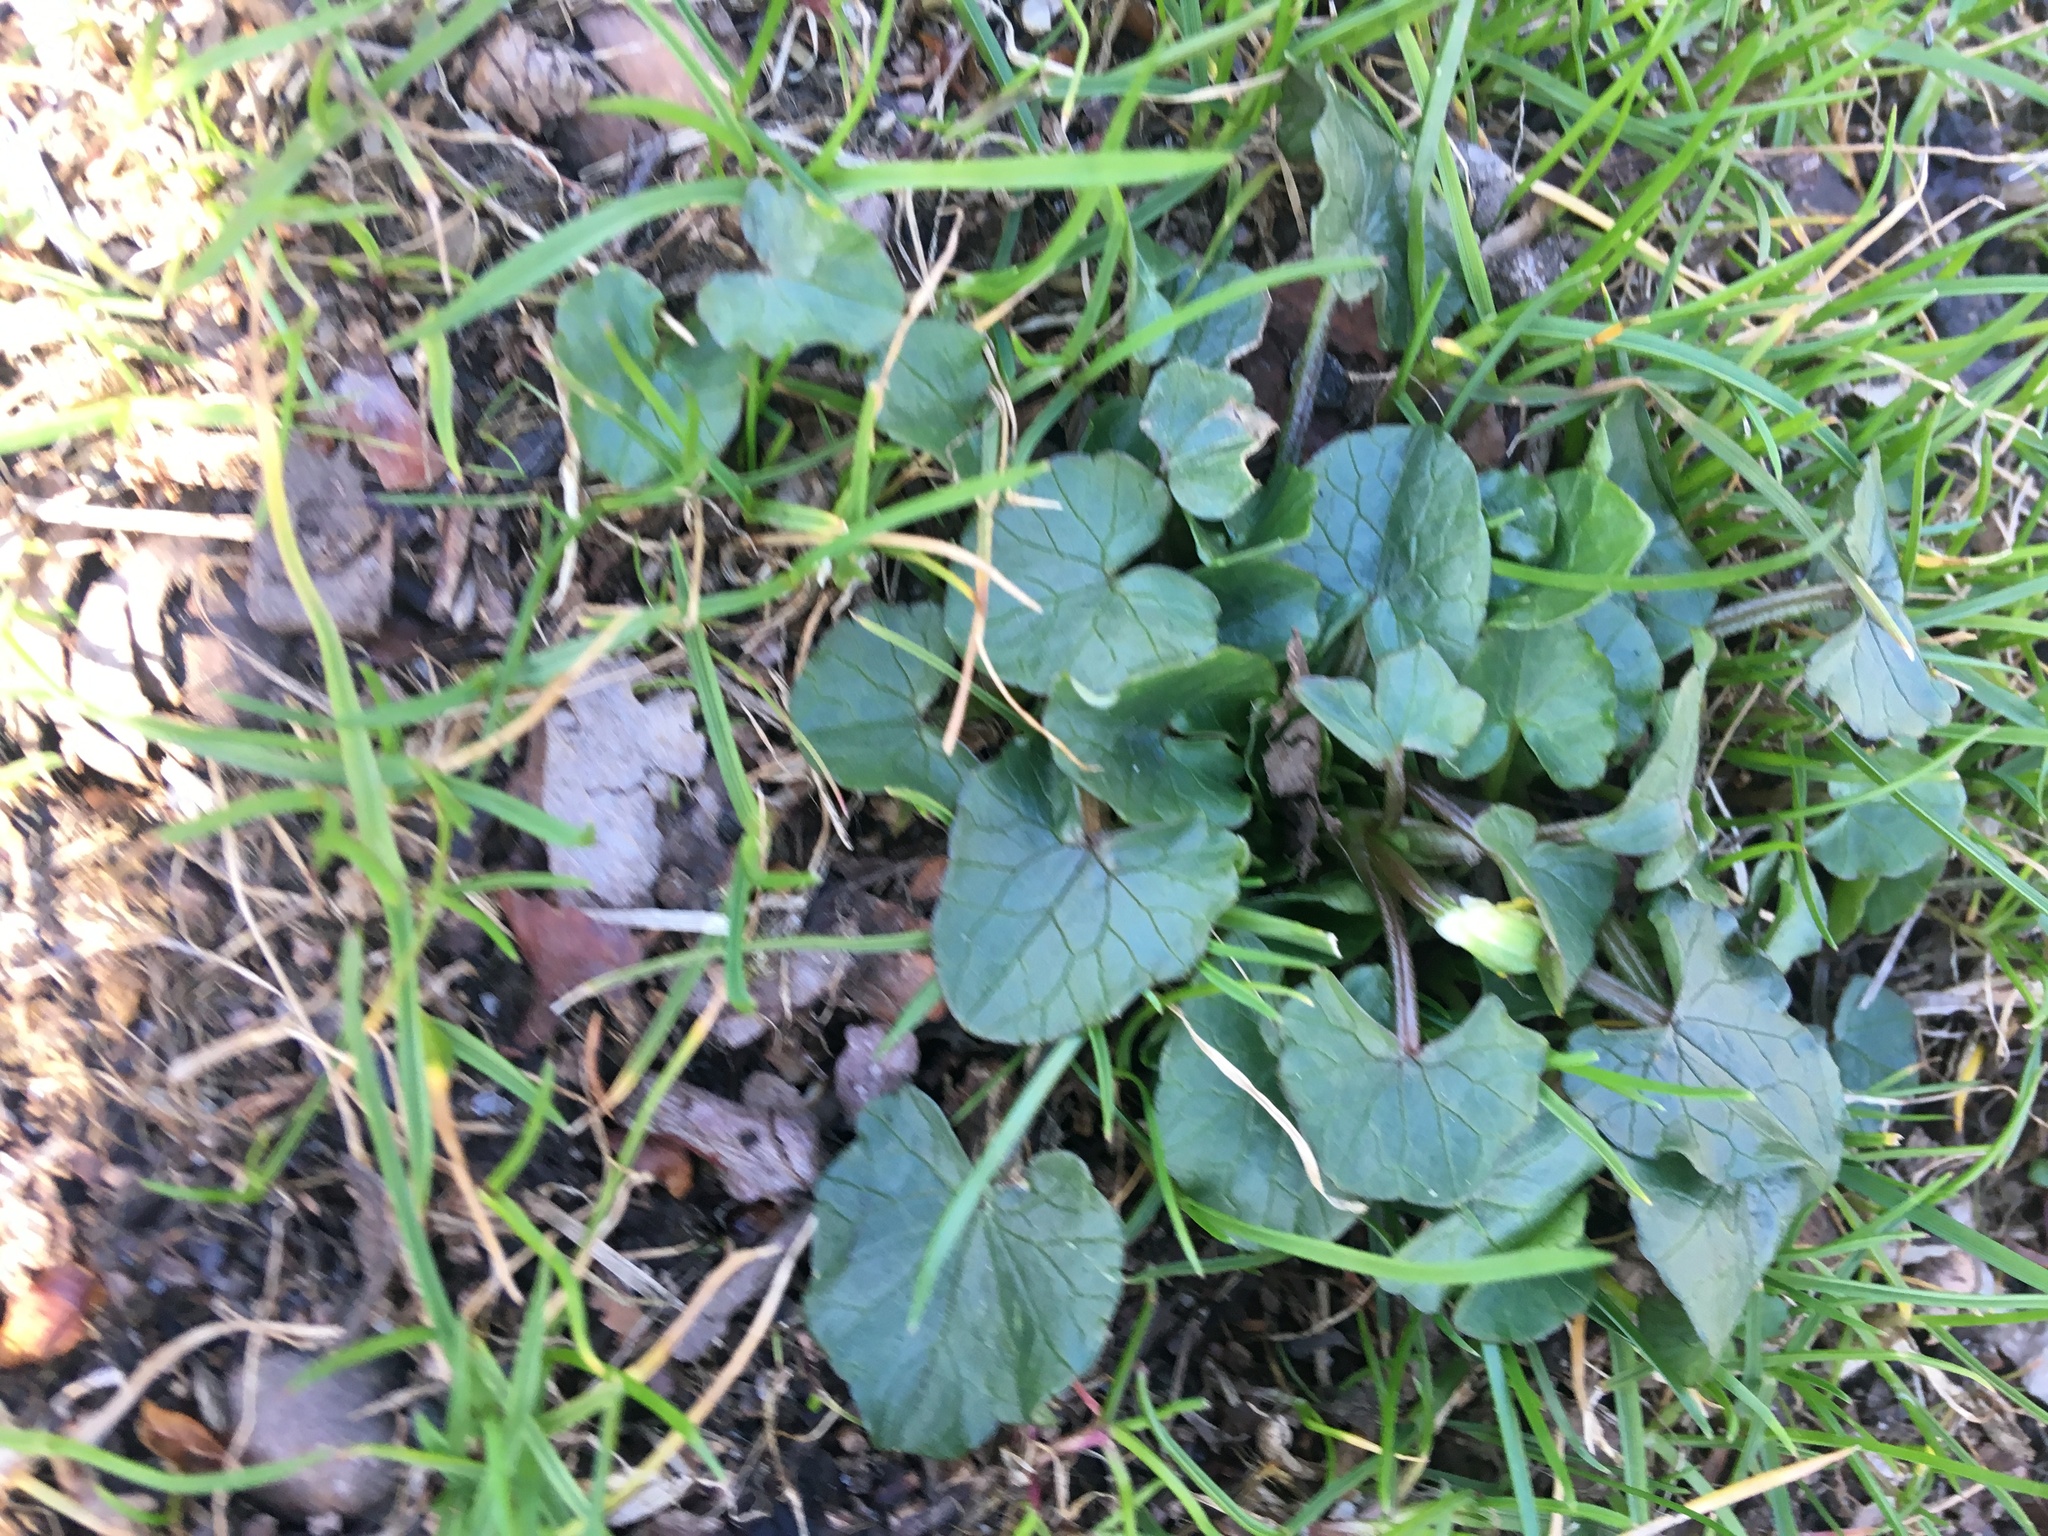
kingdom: Plantae
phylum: Tracheophyta
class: Magnoliopsida
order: Ranunculales
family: Ranunculaceae
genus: Ficaria
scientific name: Ficaria verna
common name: Lesser celandine
